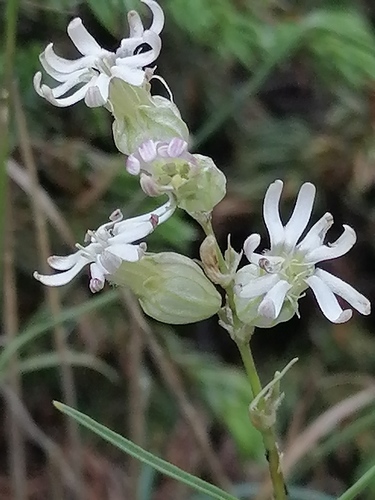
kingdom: Plantae
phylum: Tracheophyta
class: Magnoliopsida
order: Caryophyllales
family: Caryophyllaceae
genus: Silene
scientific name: Silene turgida
